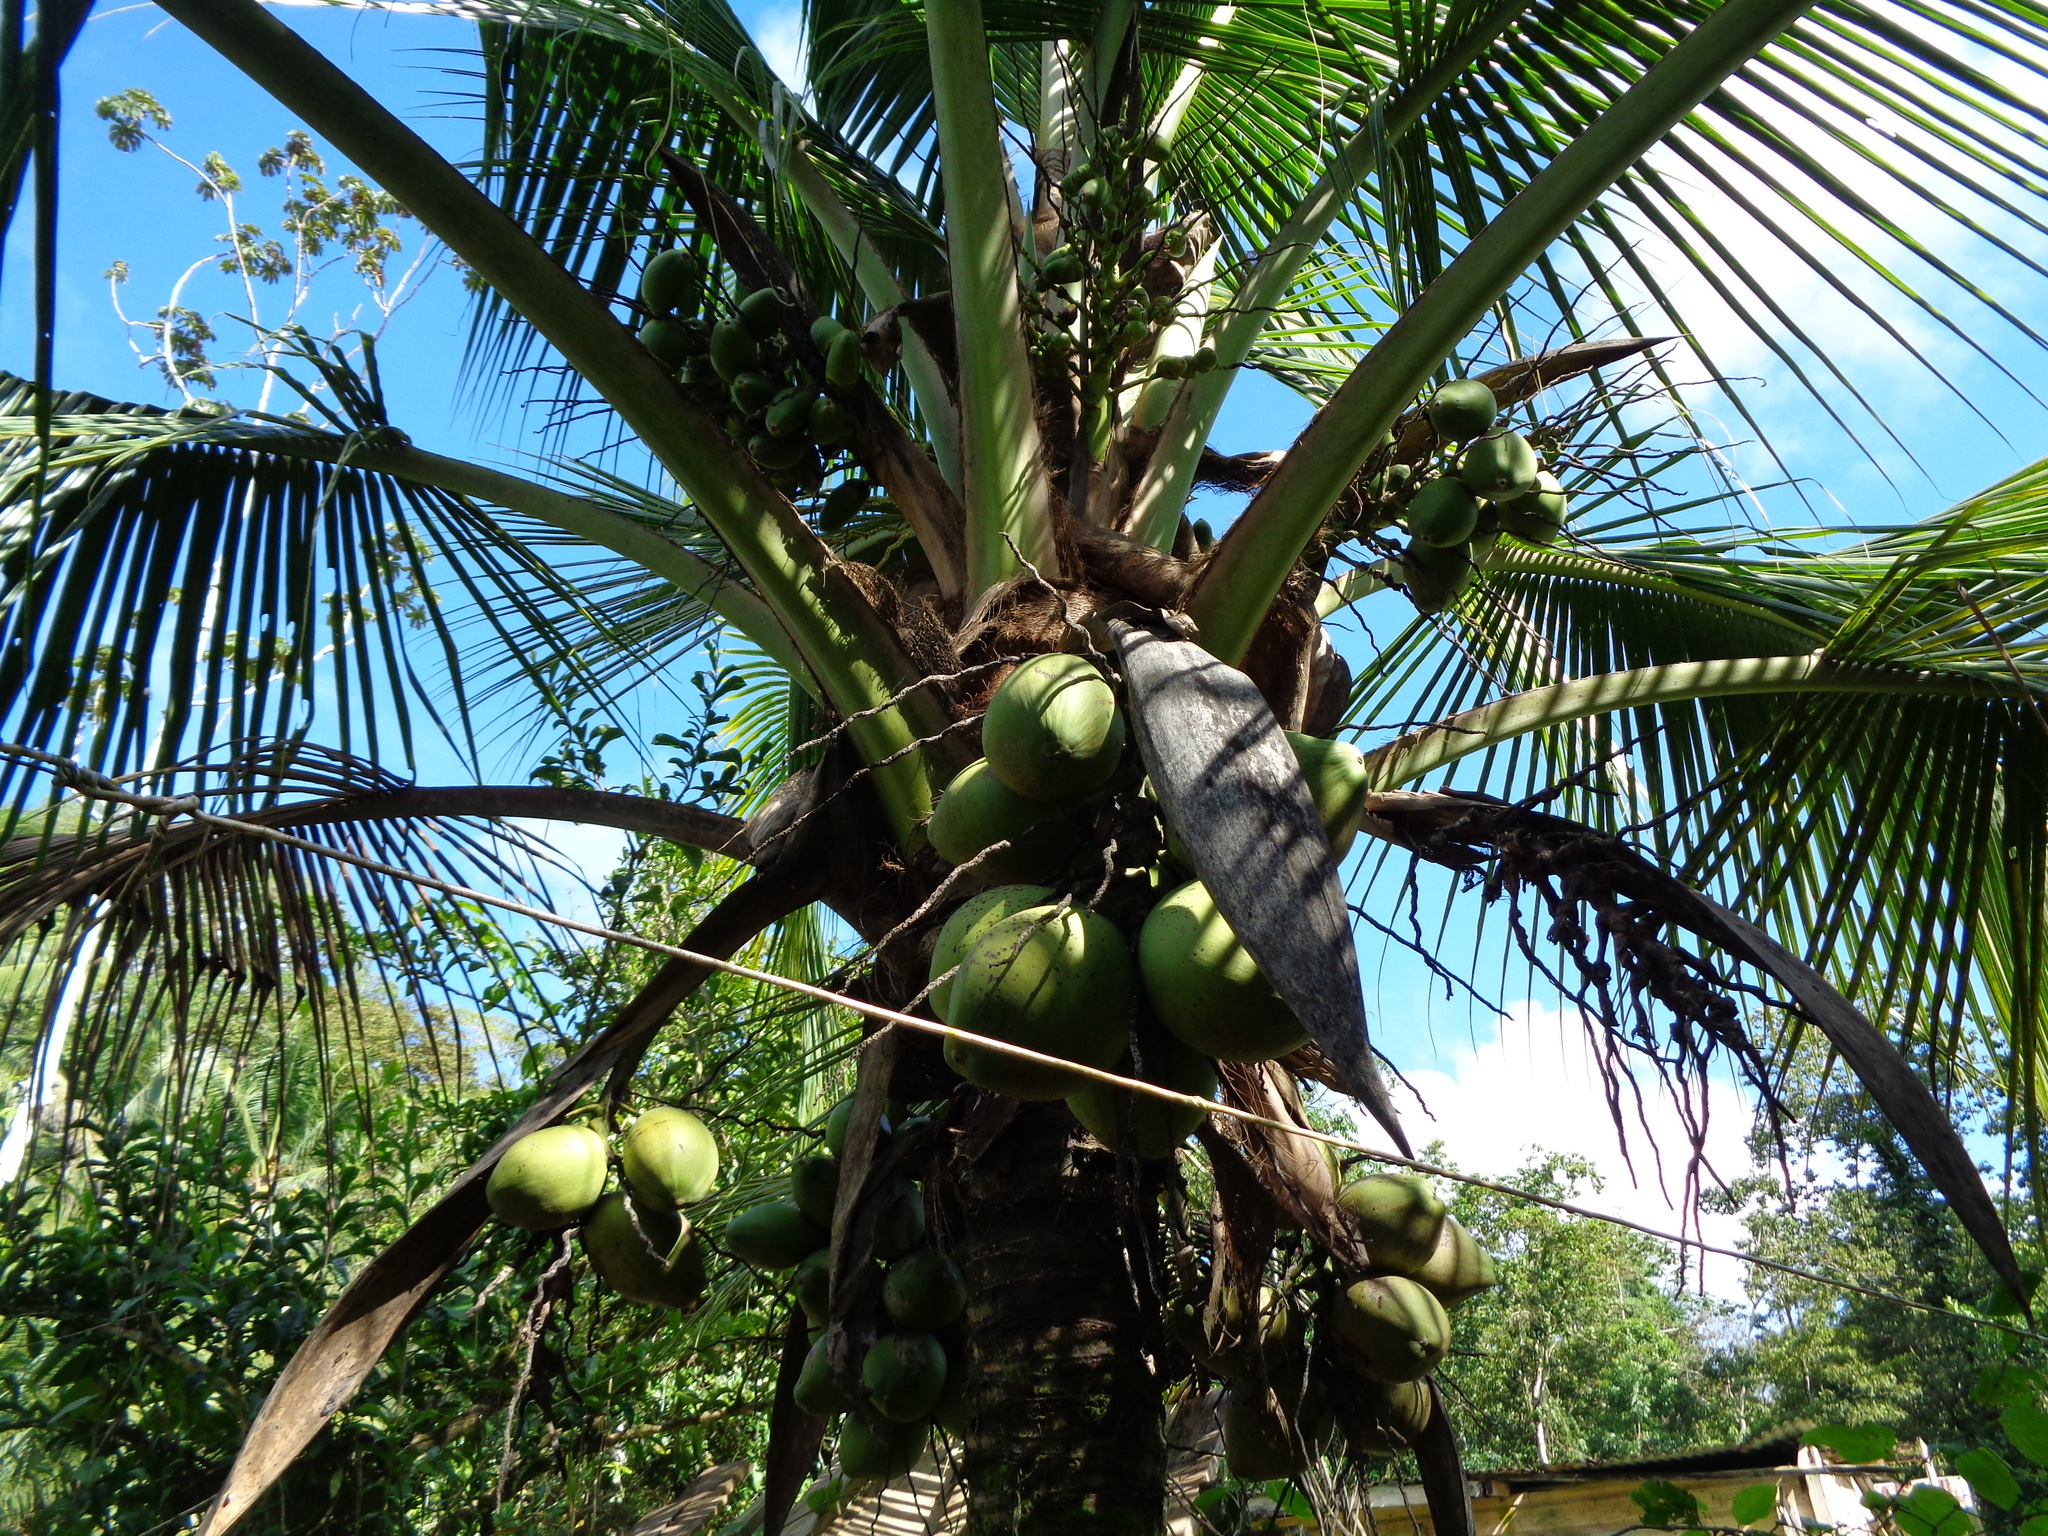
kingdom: Plantae
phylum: Tracheophyta
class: Liliopsida
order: Arecales
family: Arecaceae
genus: Cocos
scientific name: Cocos nucifera
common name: Coconut palm
